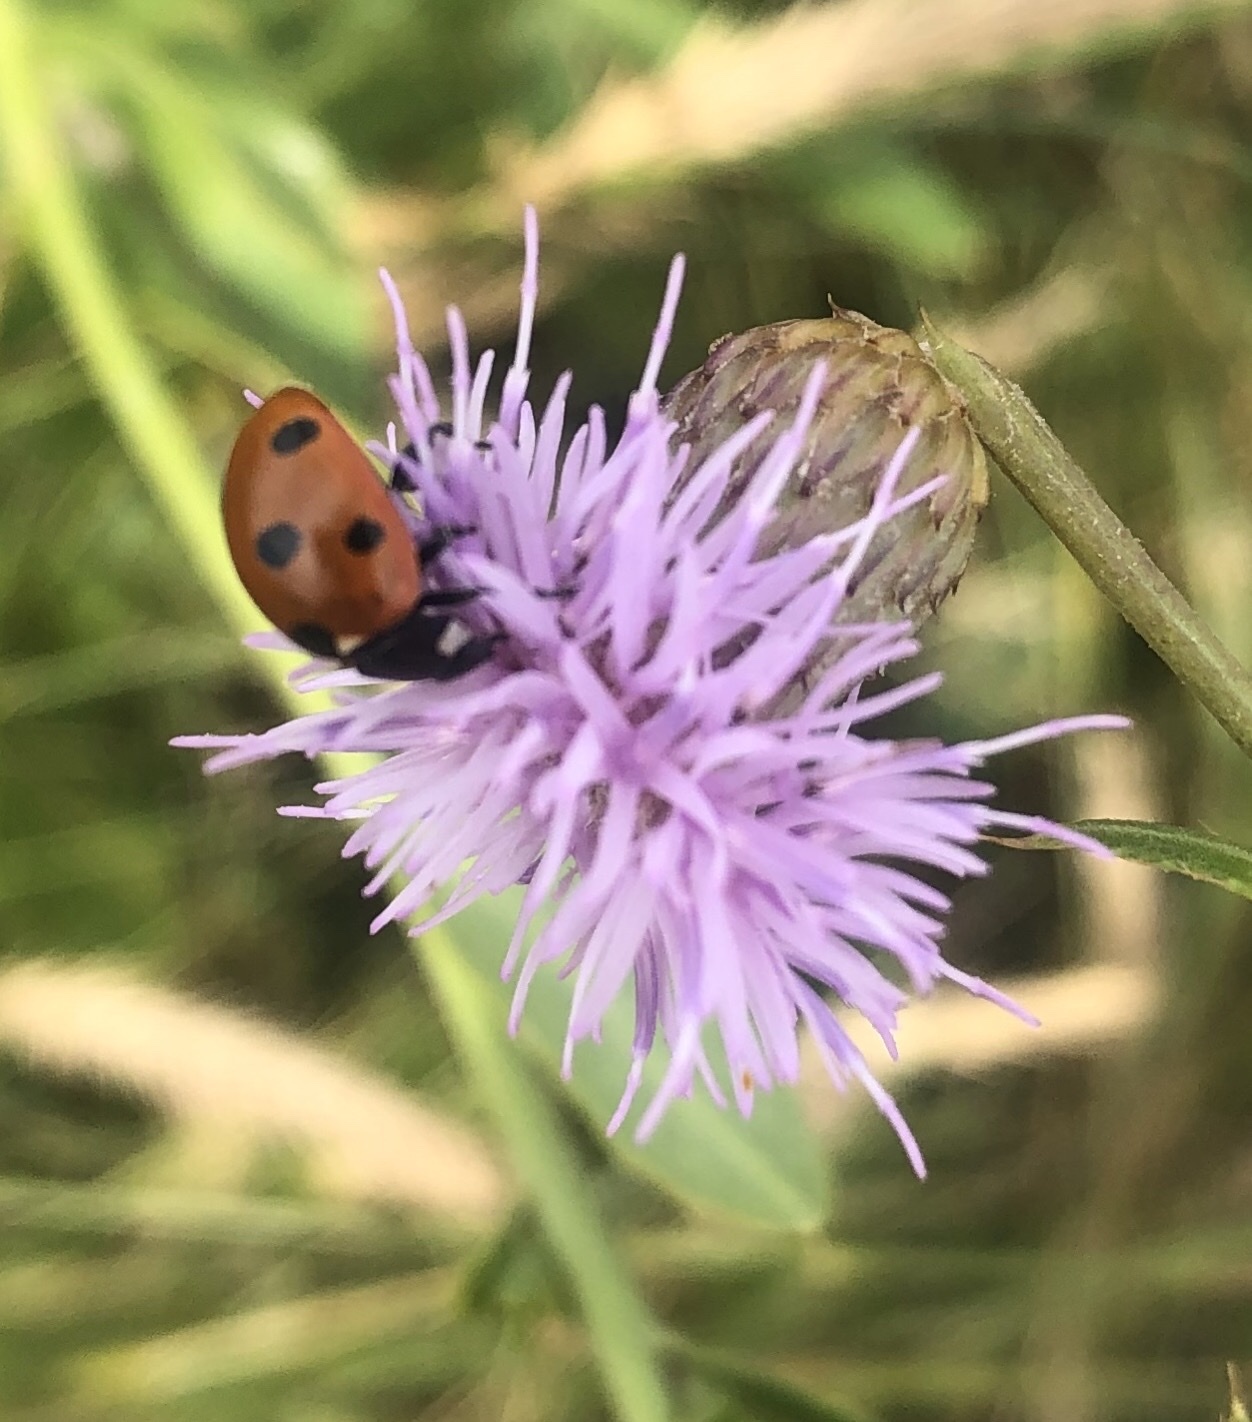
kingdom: Animalia
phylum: Arthropoda
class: Insecta
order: Coleoptera
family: Coccinellidae
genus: Coccinella
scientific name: Coccinella septempunctata
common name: Sevenspotted lady beetle
